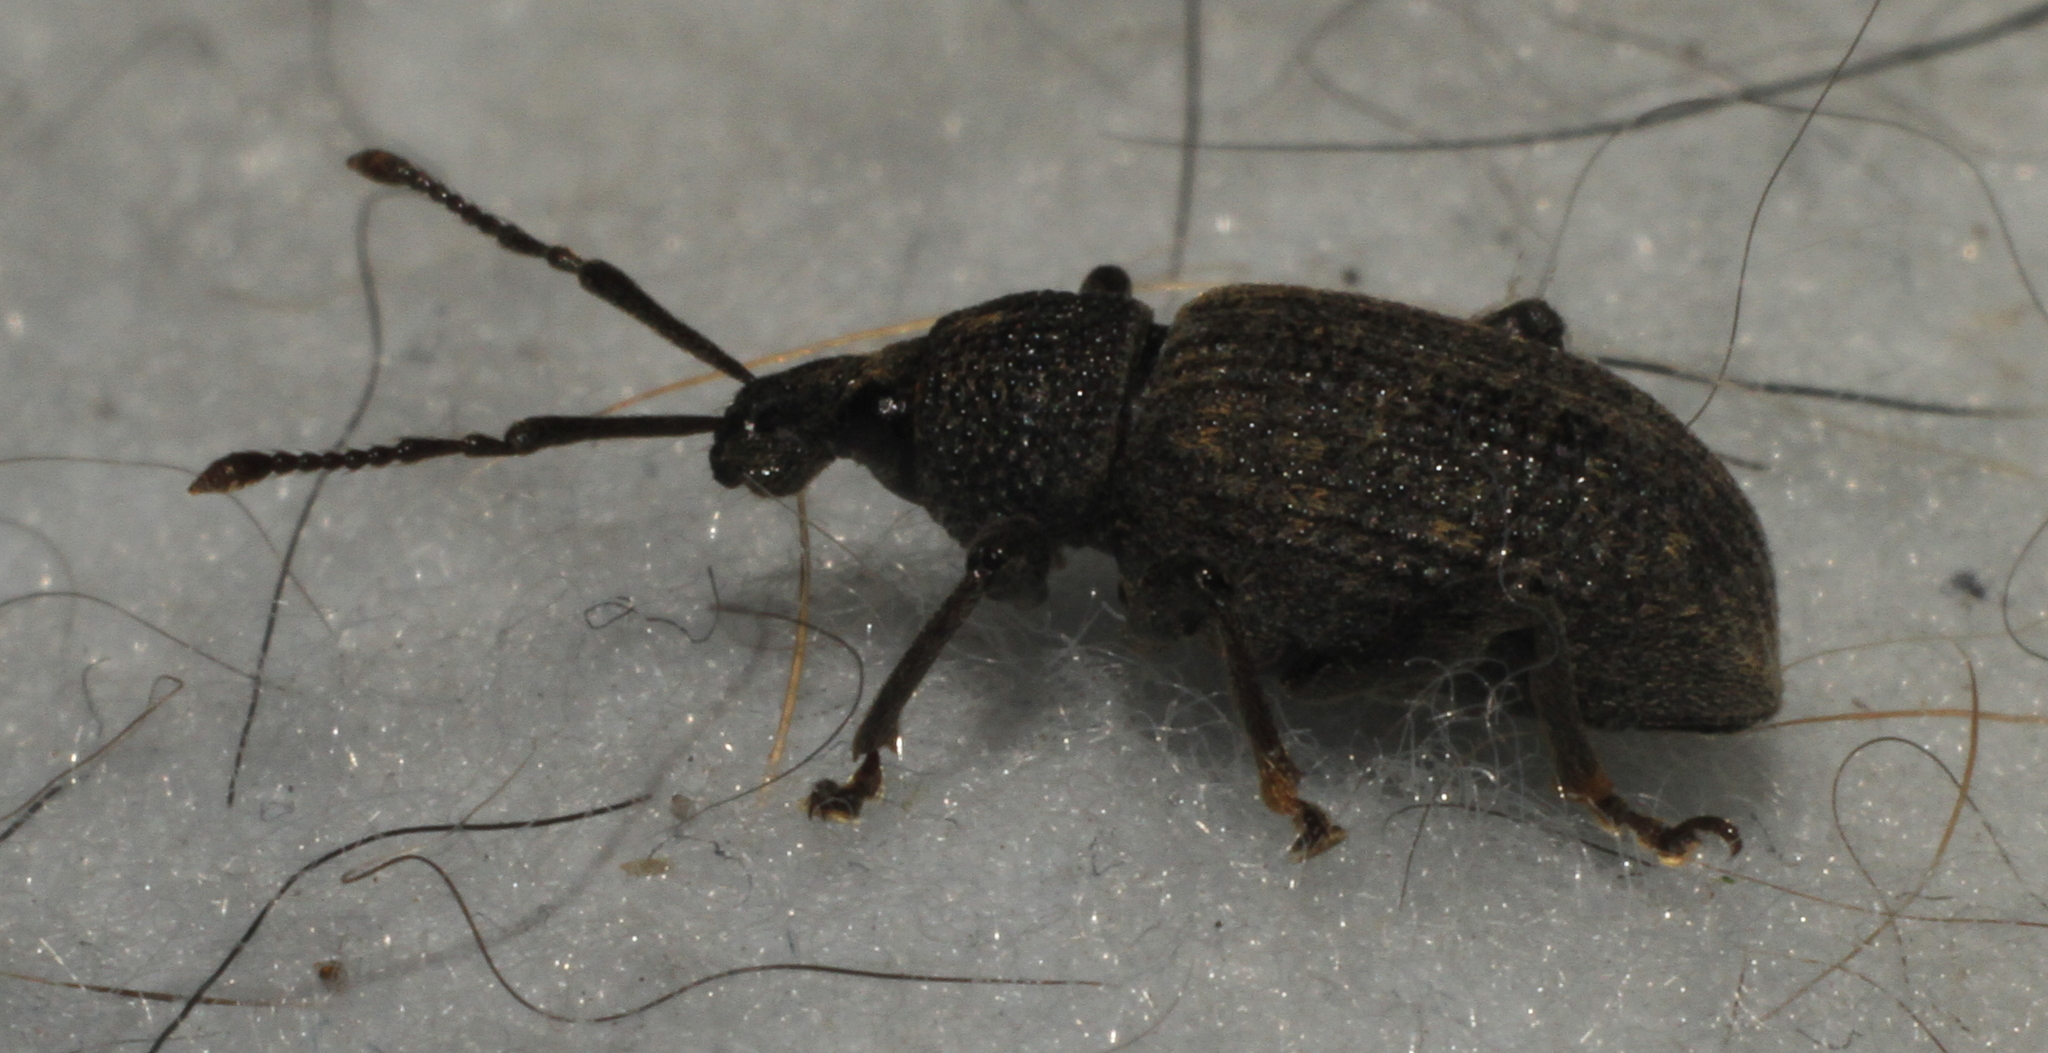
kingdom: Animalia
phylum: Arthropoda
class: Insecta
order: Coleoptera
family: Curculionidae
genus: Otiorhynchus
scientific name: Otiorhynchus sulcatus
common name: Black vine weevil
